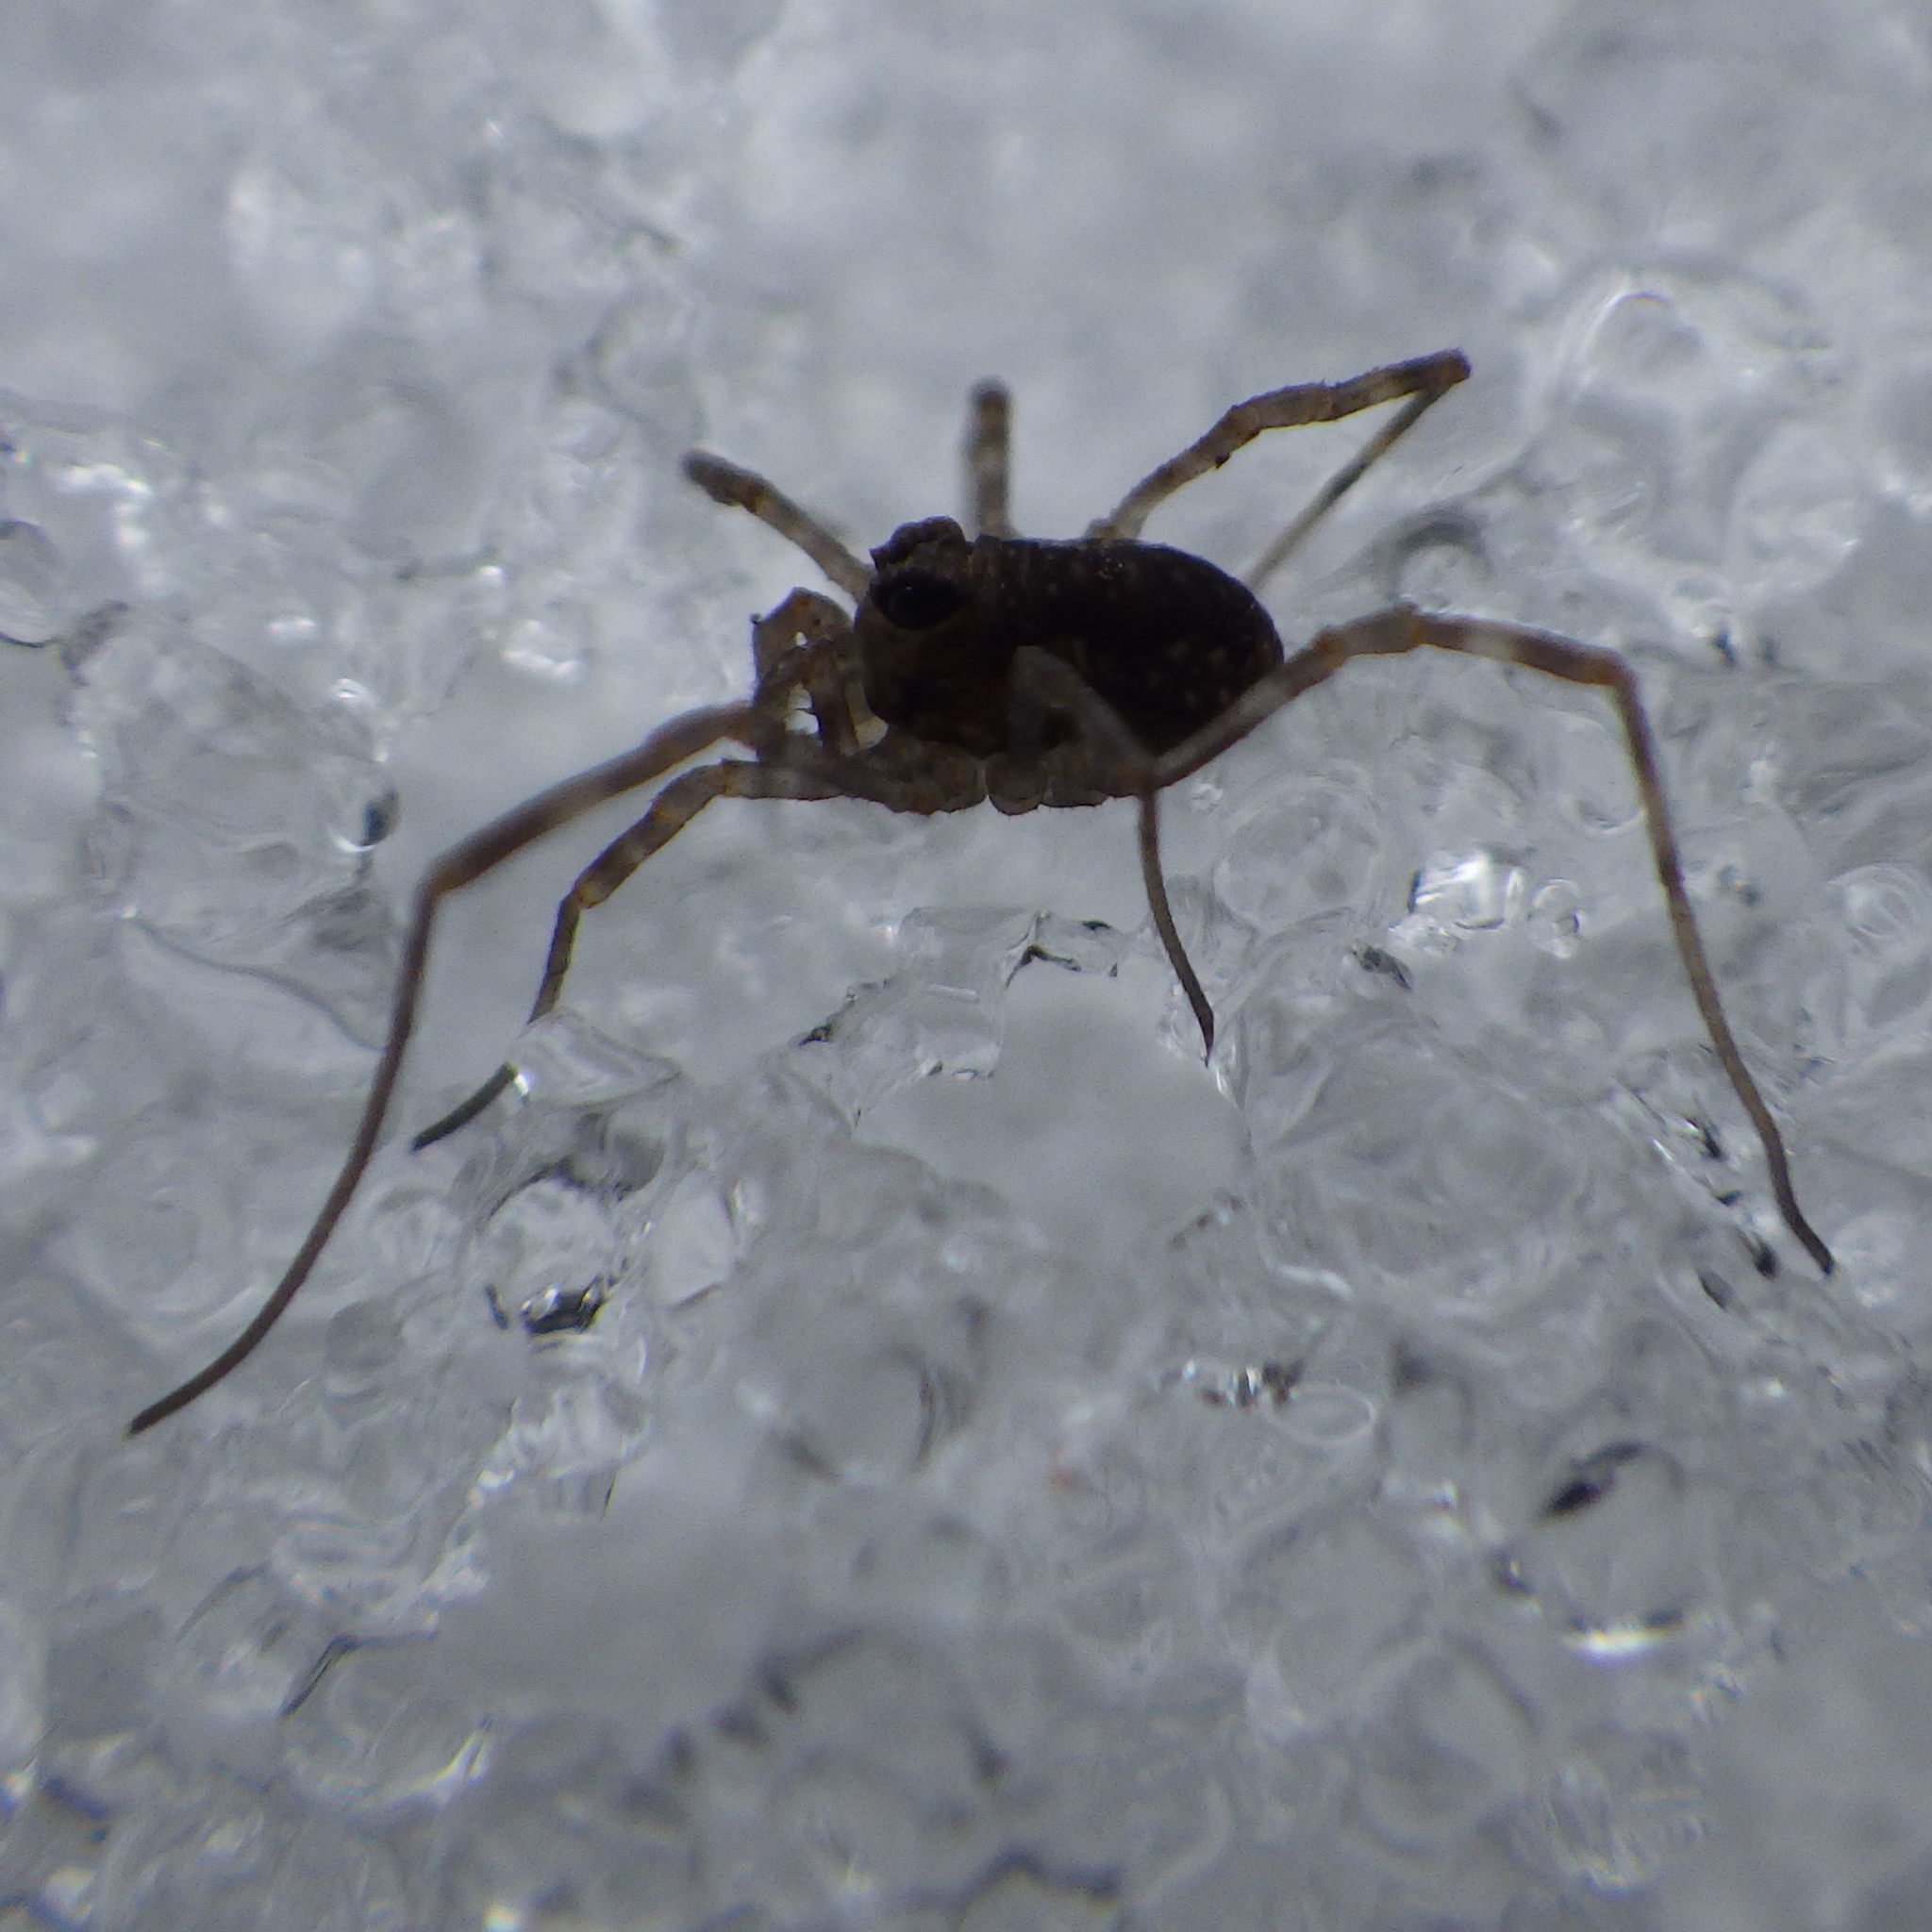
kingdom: Animalia
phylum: Arthropoda
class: Arachnida
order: Opiliones
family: Phalangiidae
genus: Rilaena
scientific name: Rilaena triangularis
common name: Spring harvestman
